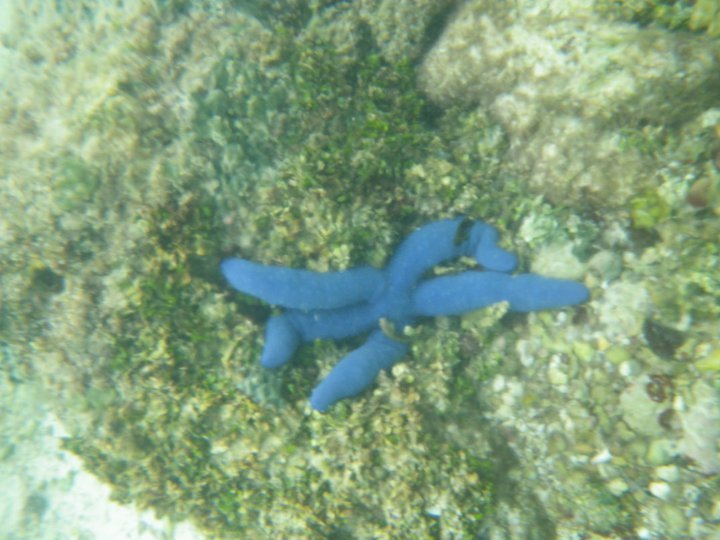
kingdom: Animalia
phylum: Echinodermata
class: Asteroidea
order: Valvatida
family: Ophidiasteridae
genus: Linckia
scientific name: Linckia laevigata
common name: Azure sea star
